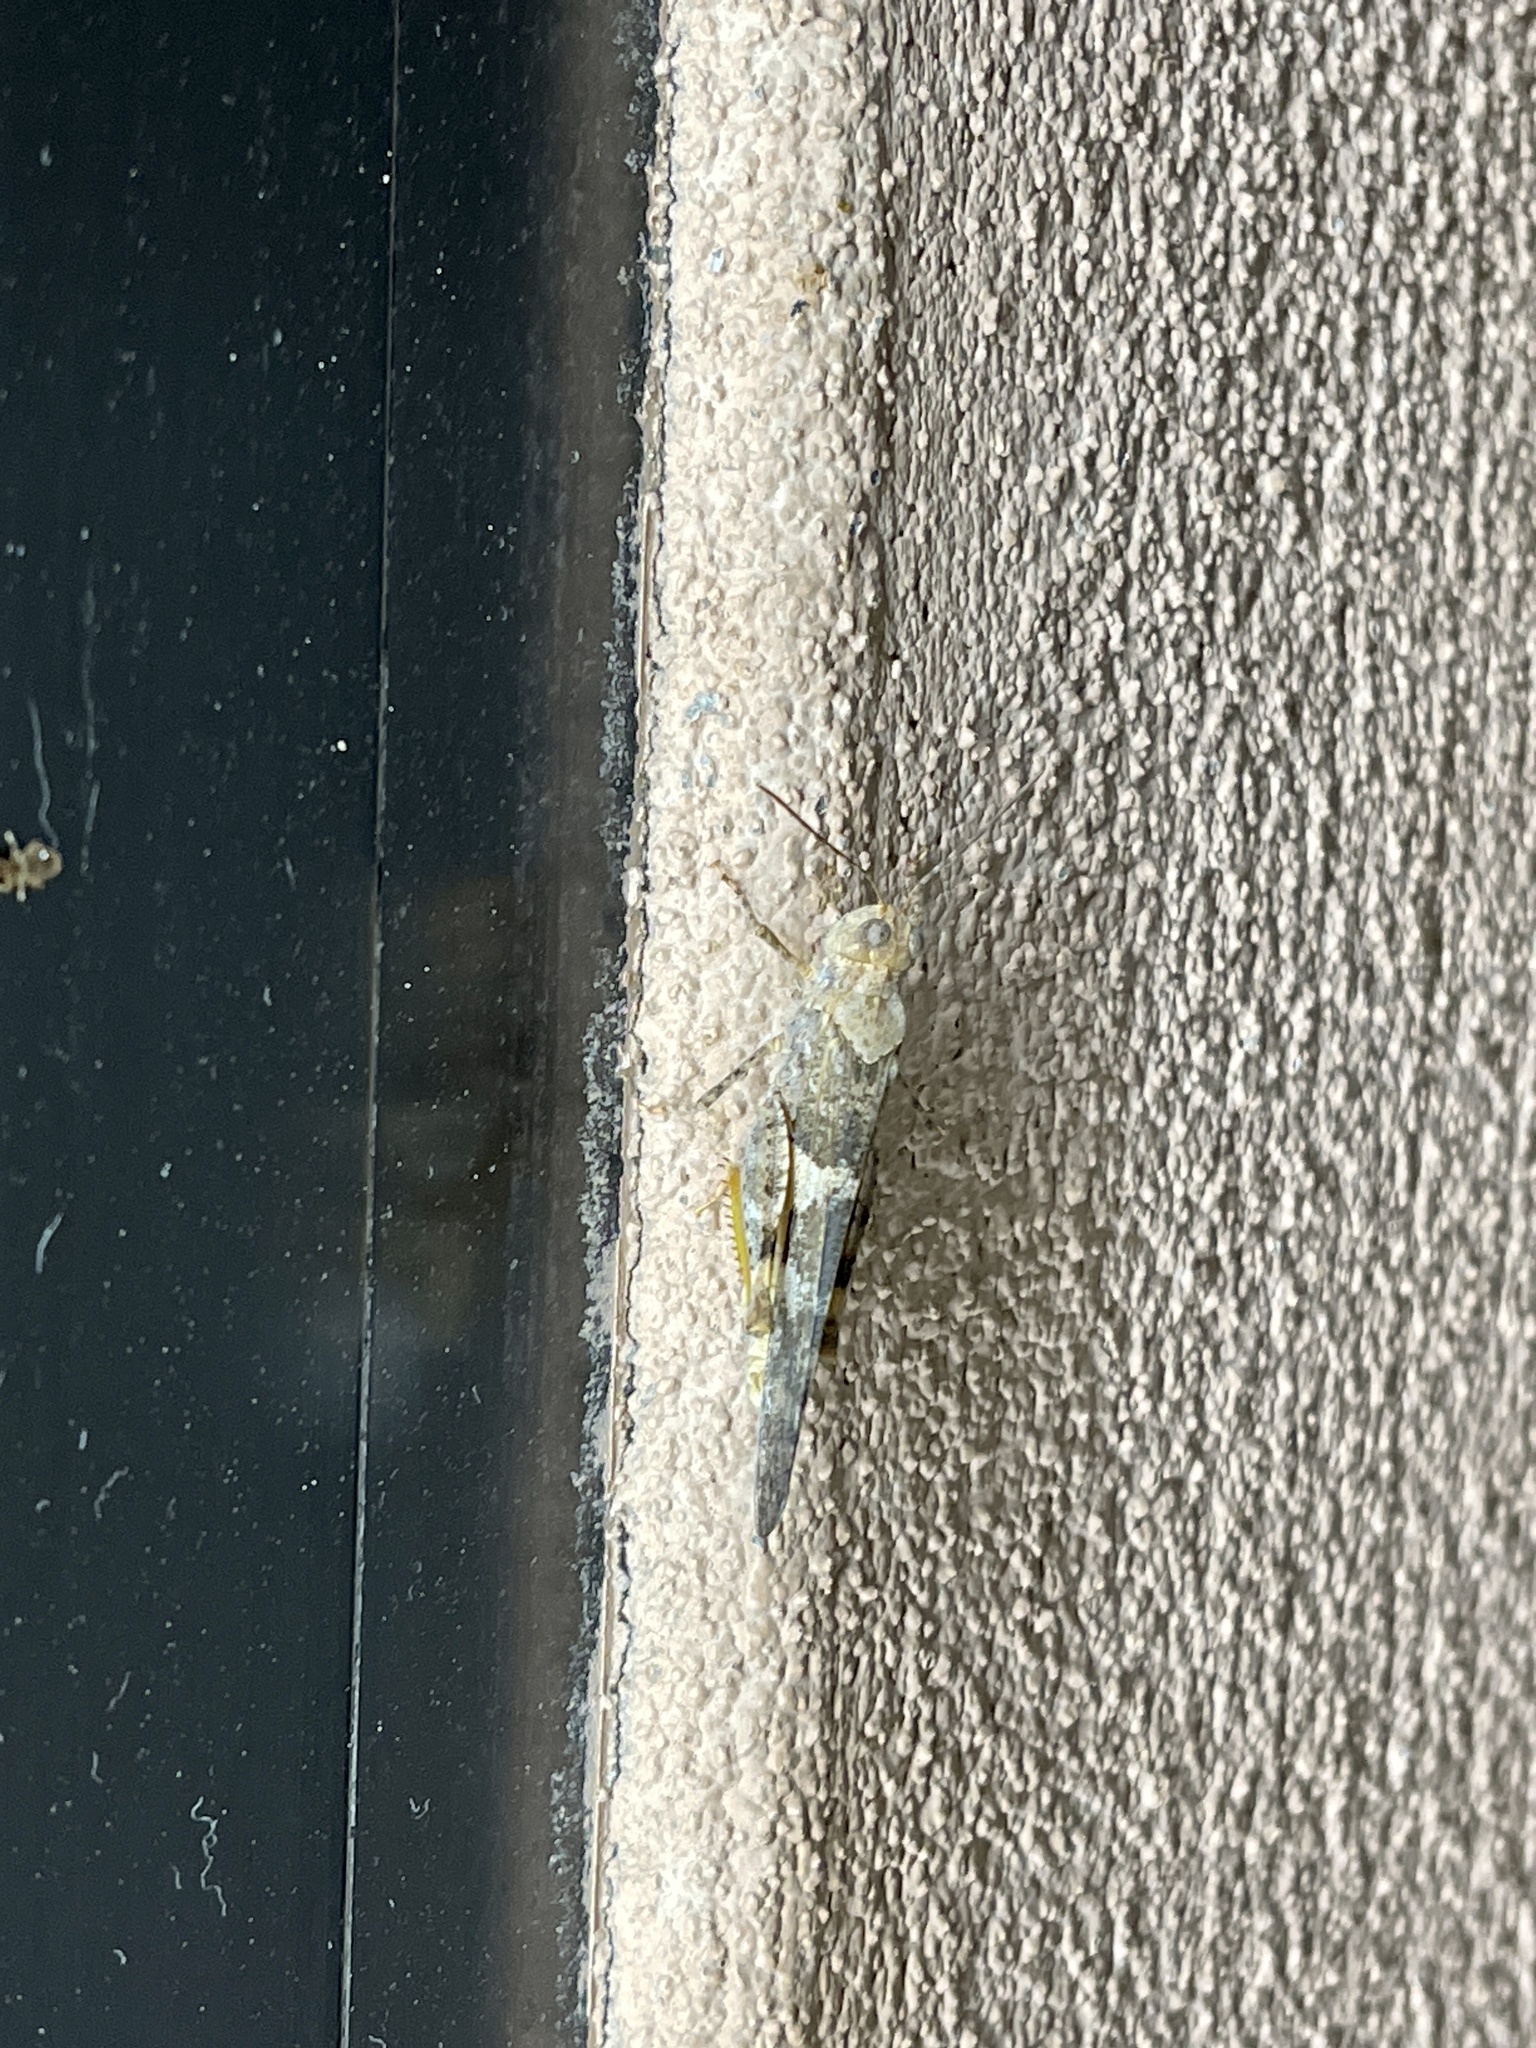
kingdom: Animalia
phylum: Arthropoda
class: Insecta
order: Orthoptera
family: Acrididae
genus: Trimerotropis
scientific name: Trimerotropis pallidipennis
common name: Pallid-winged grasshopper
